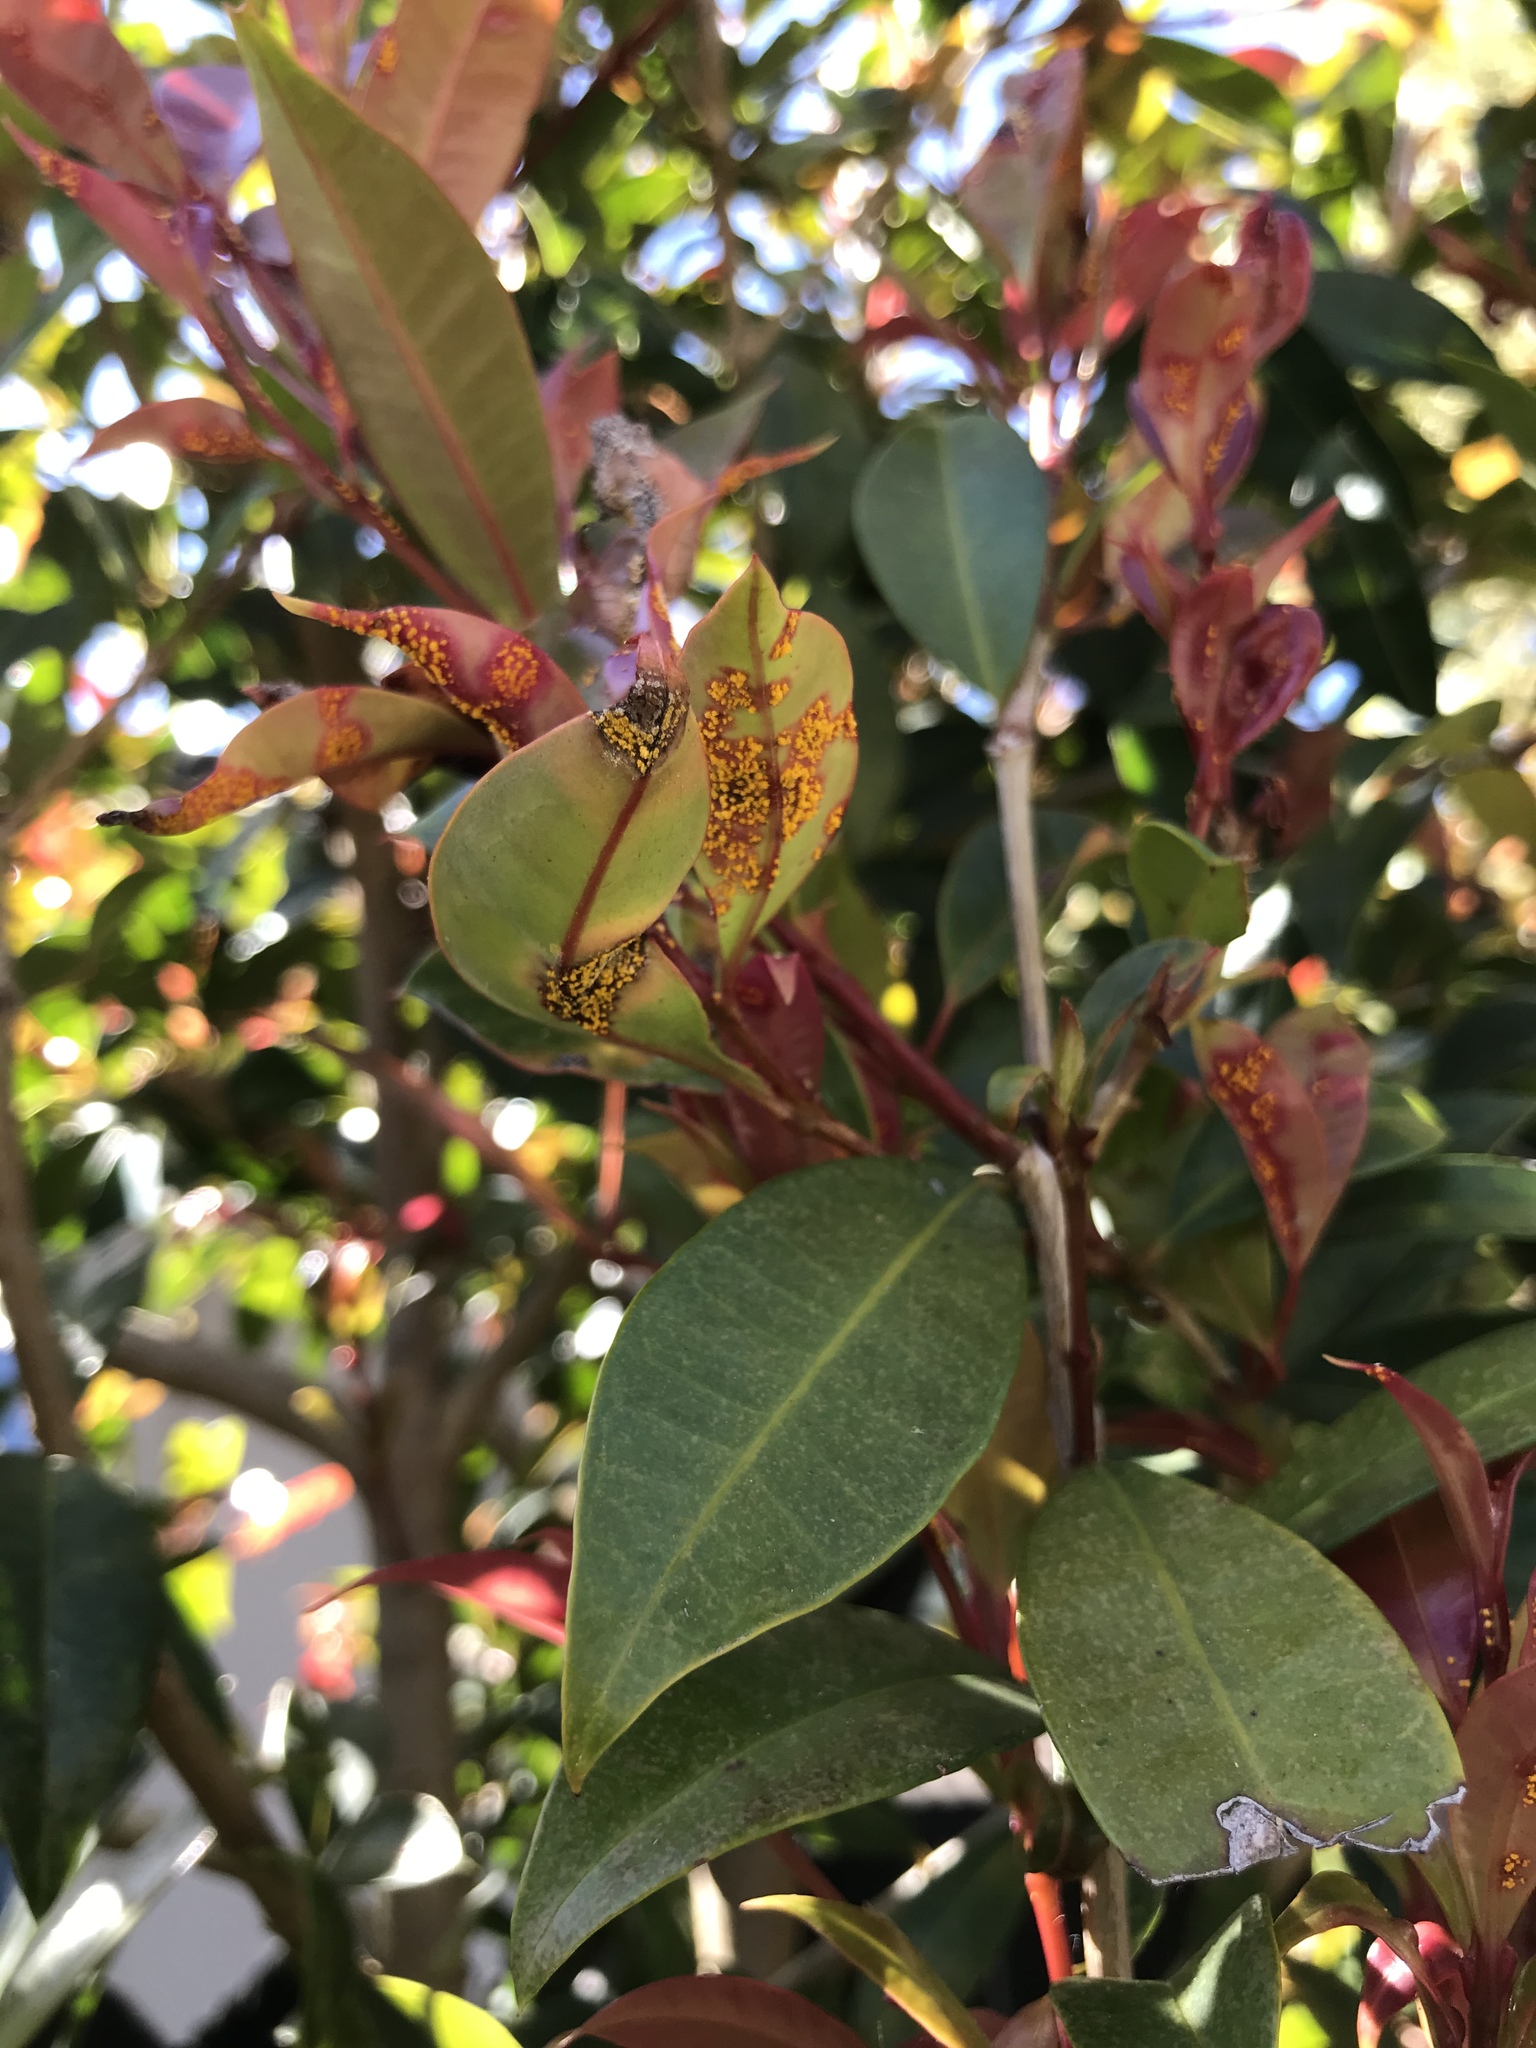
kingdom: Fungi
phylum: Basidiomycota
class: Pucciniomycetes
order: Pucciniales
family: Sphaerophragmiaceae
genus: Austropuccinia
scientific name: Austropuccinia psidii
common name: Myrtle rust
